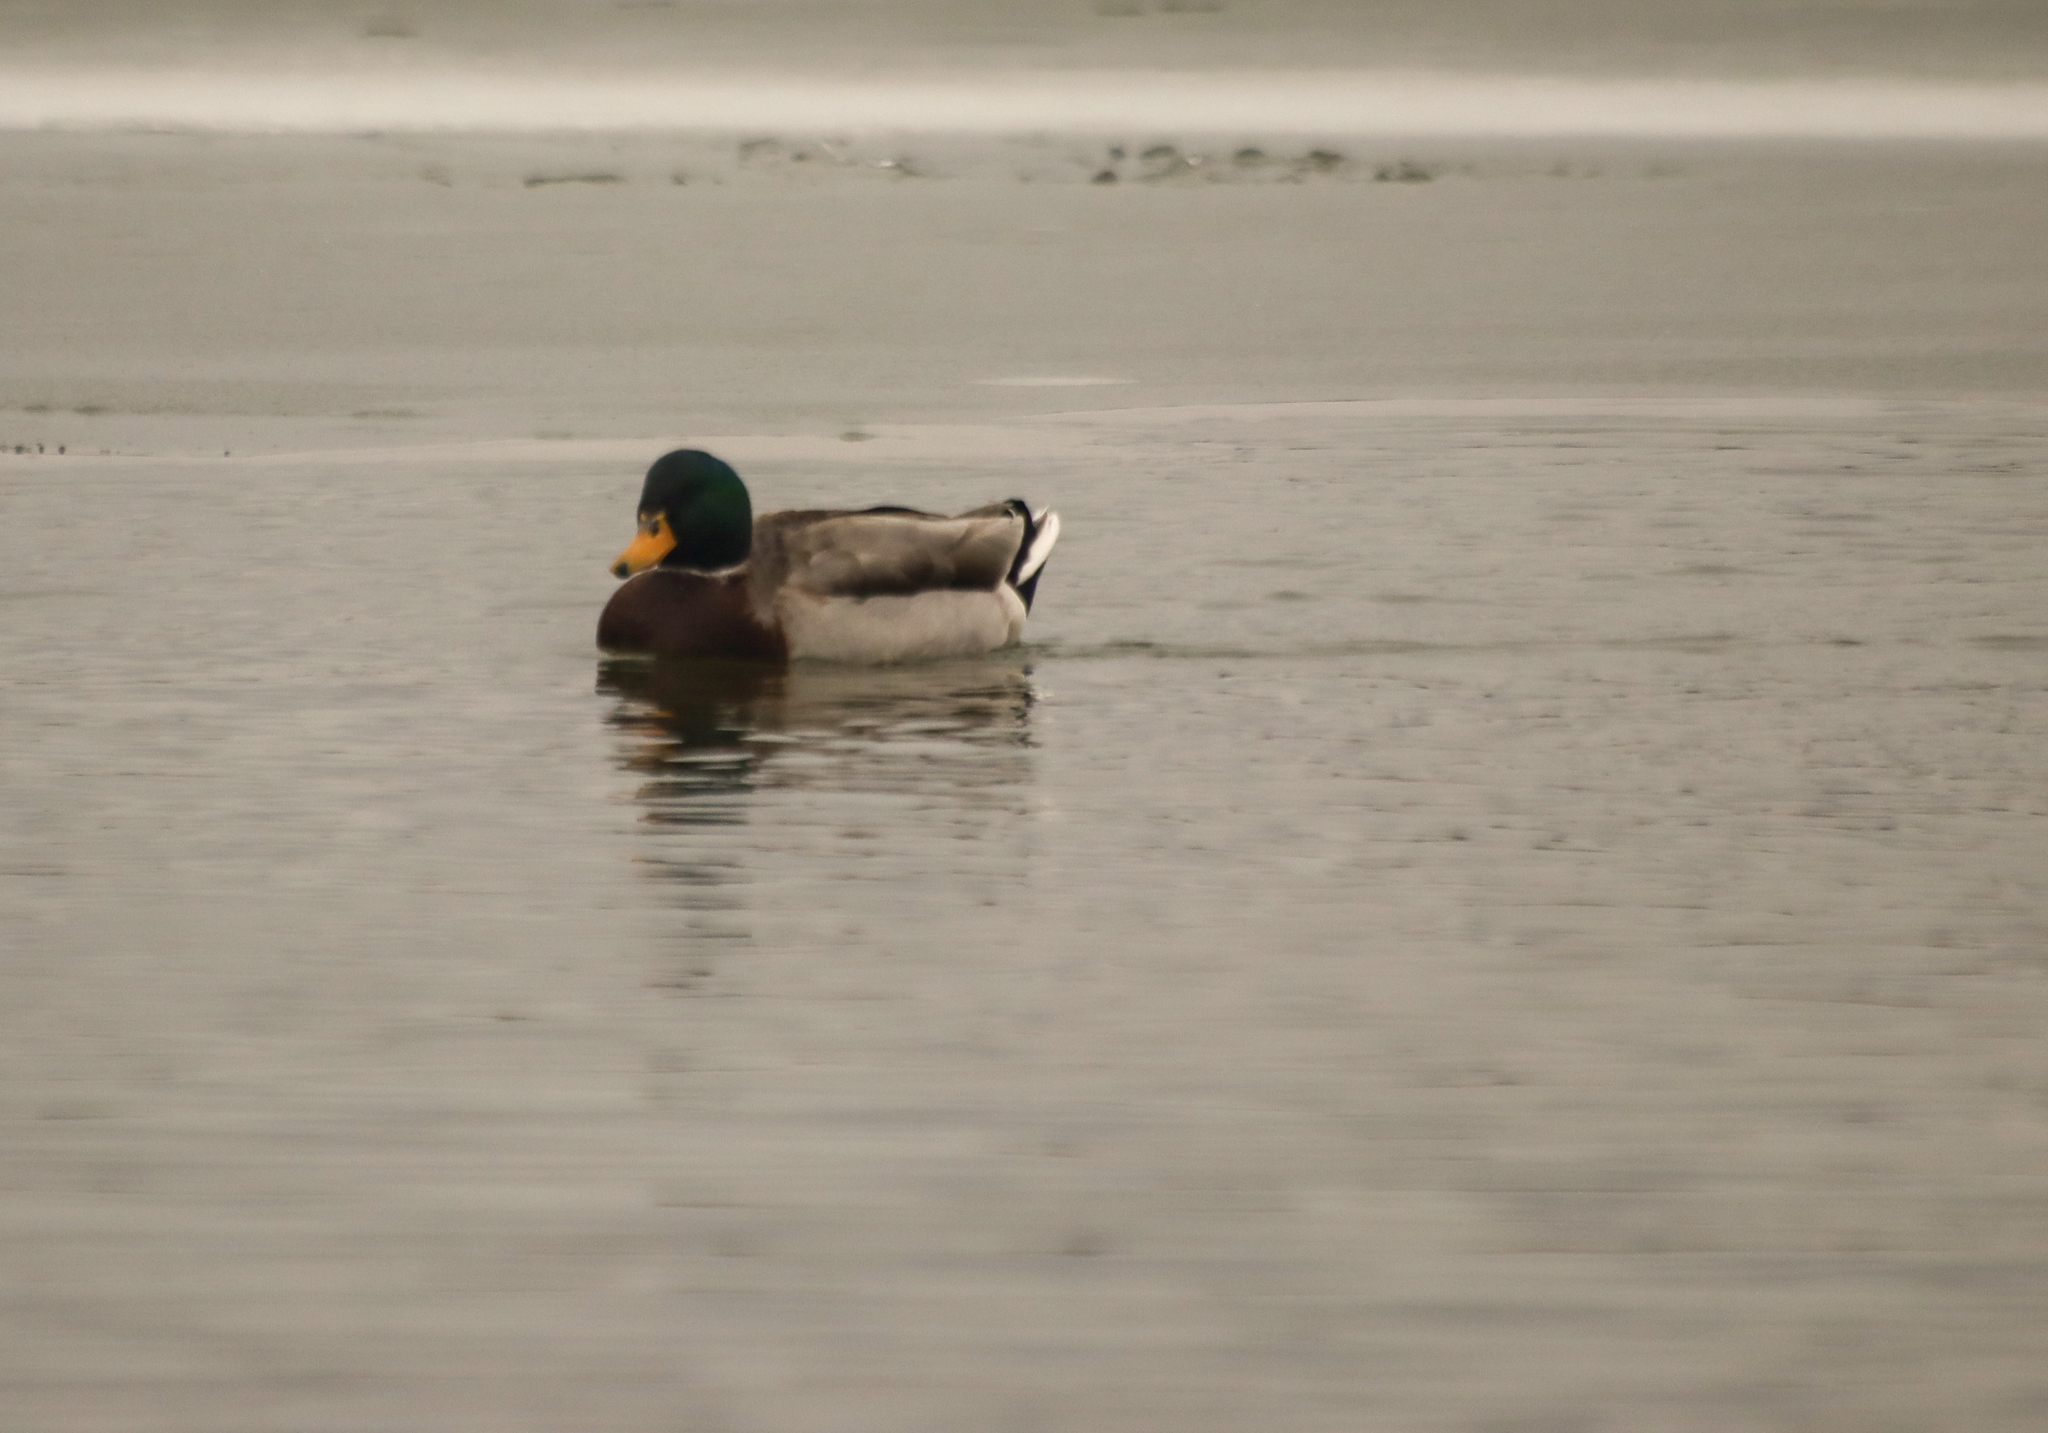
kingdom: Animalia
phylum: Chordata
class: Aves
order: Anseriformes
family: Anatidae
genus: Anas
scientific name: Anas platyrhynchos
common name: Mallard
